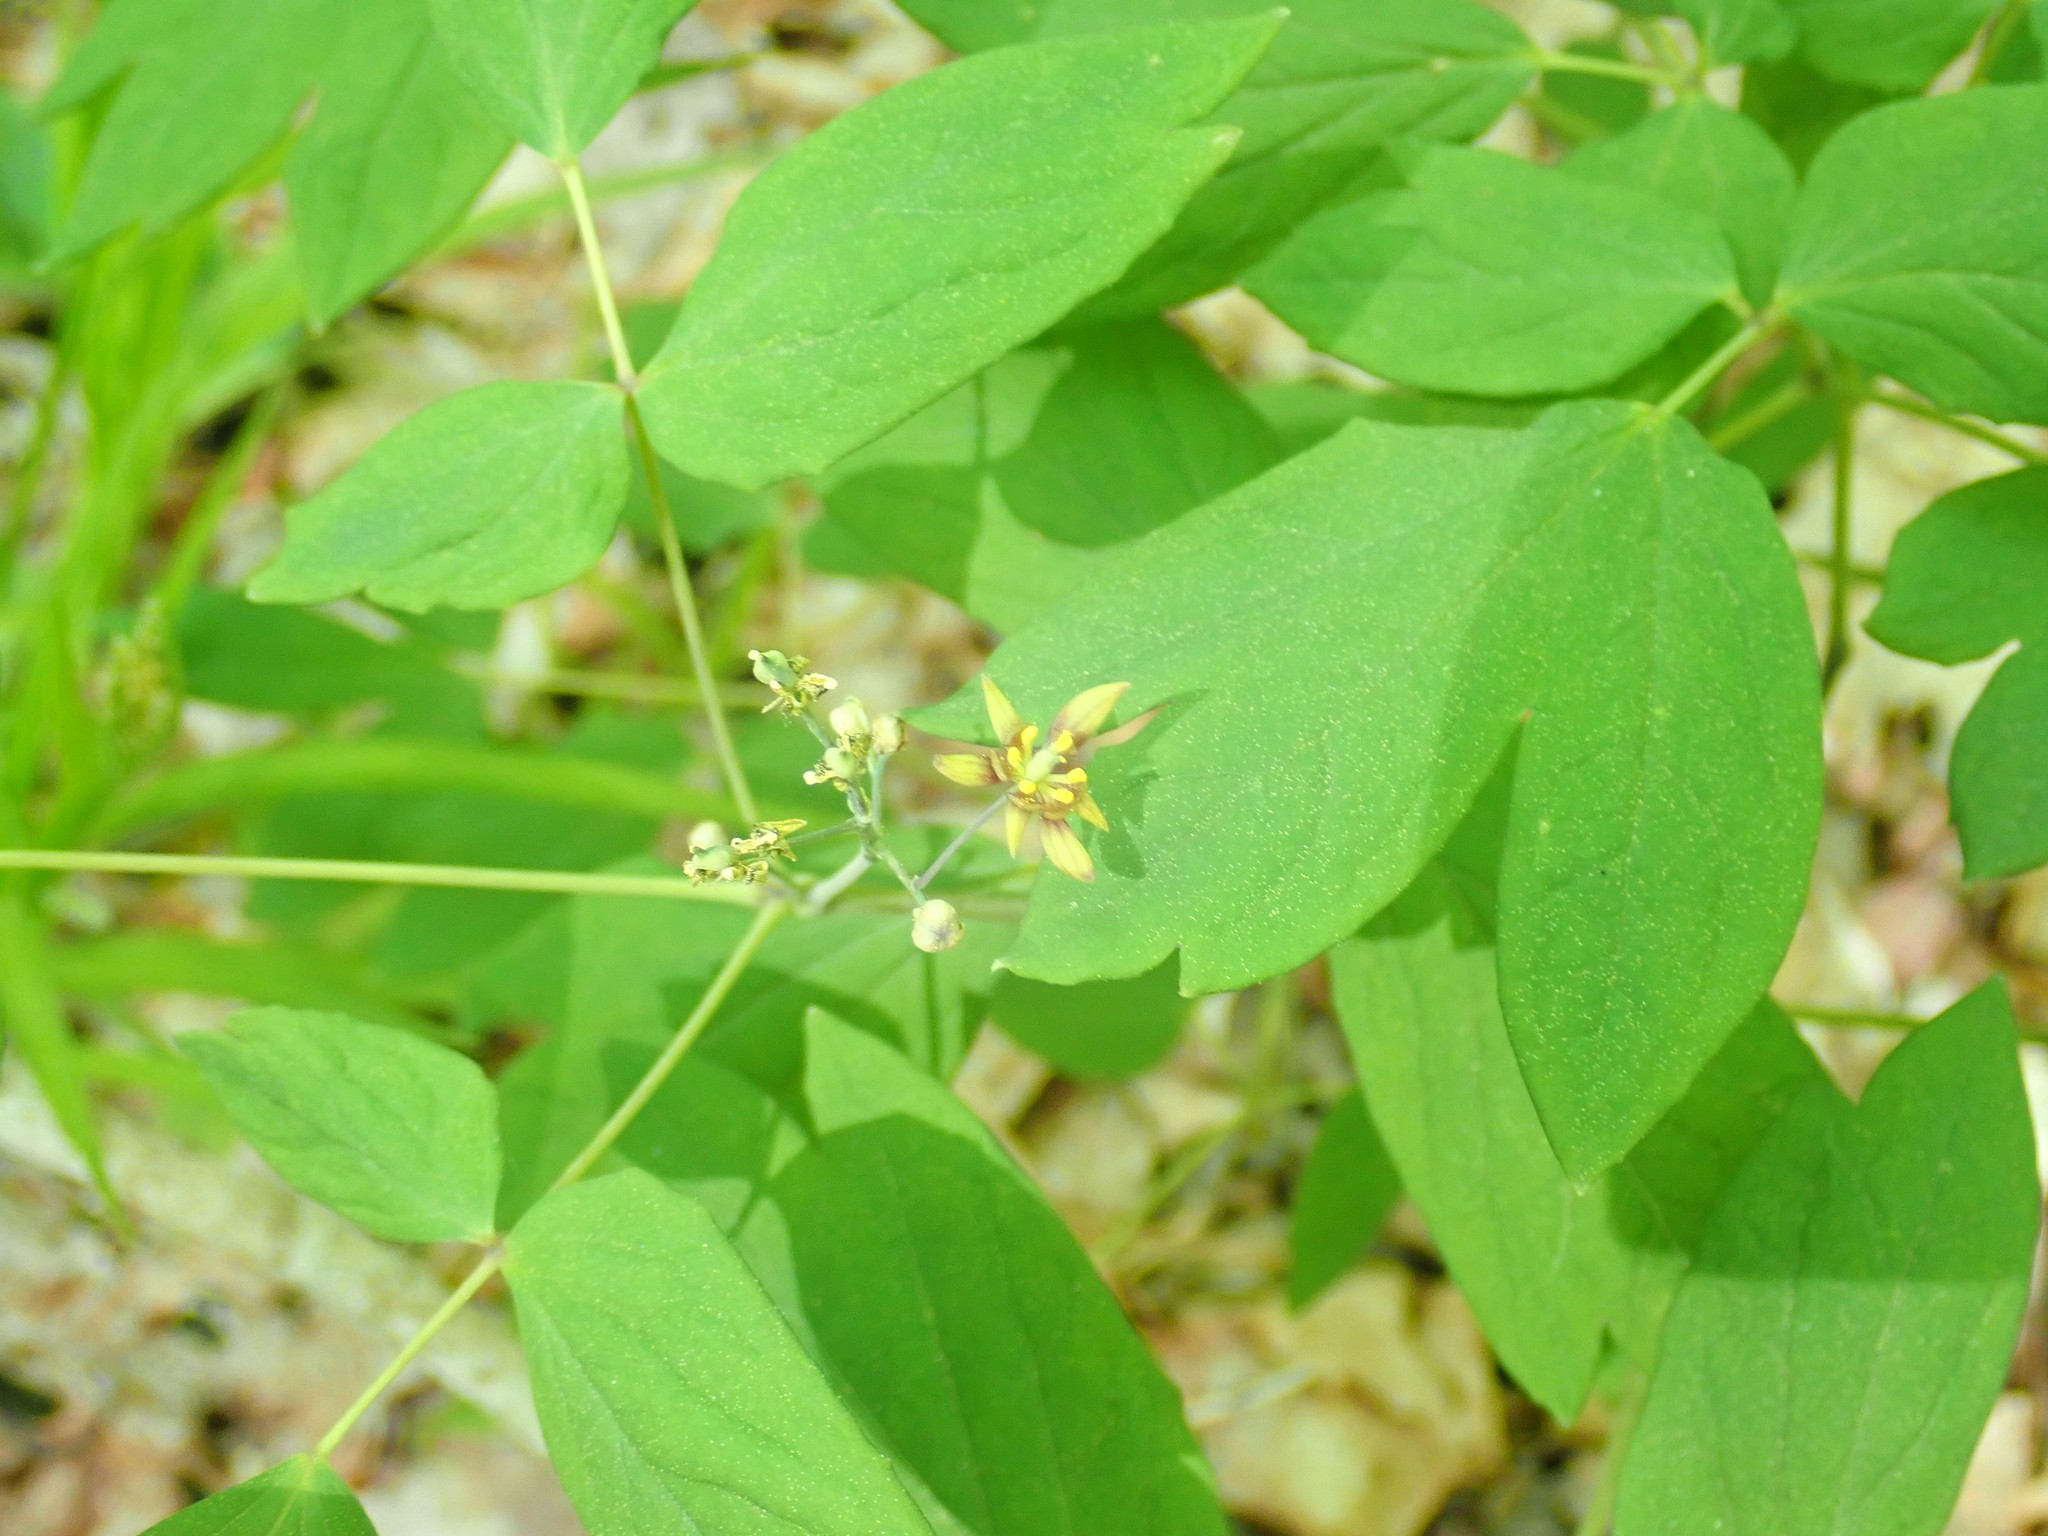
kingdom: Plantae
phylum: Tracheophyta
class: Magnoliopsida
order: Ranunculales
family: Berberidaceae
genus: Caulophyllum
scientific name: Caulophyllum thalictroides
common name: Blue cohosh
